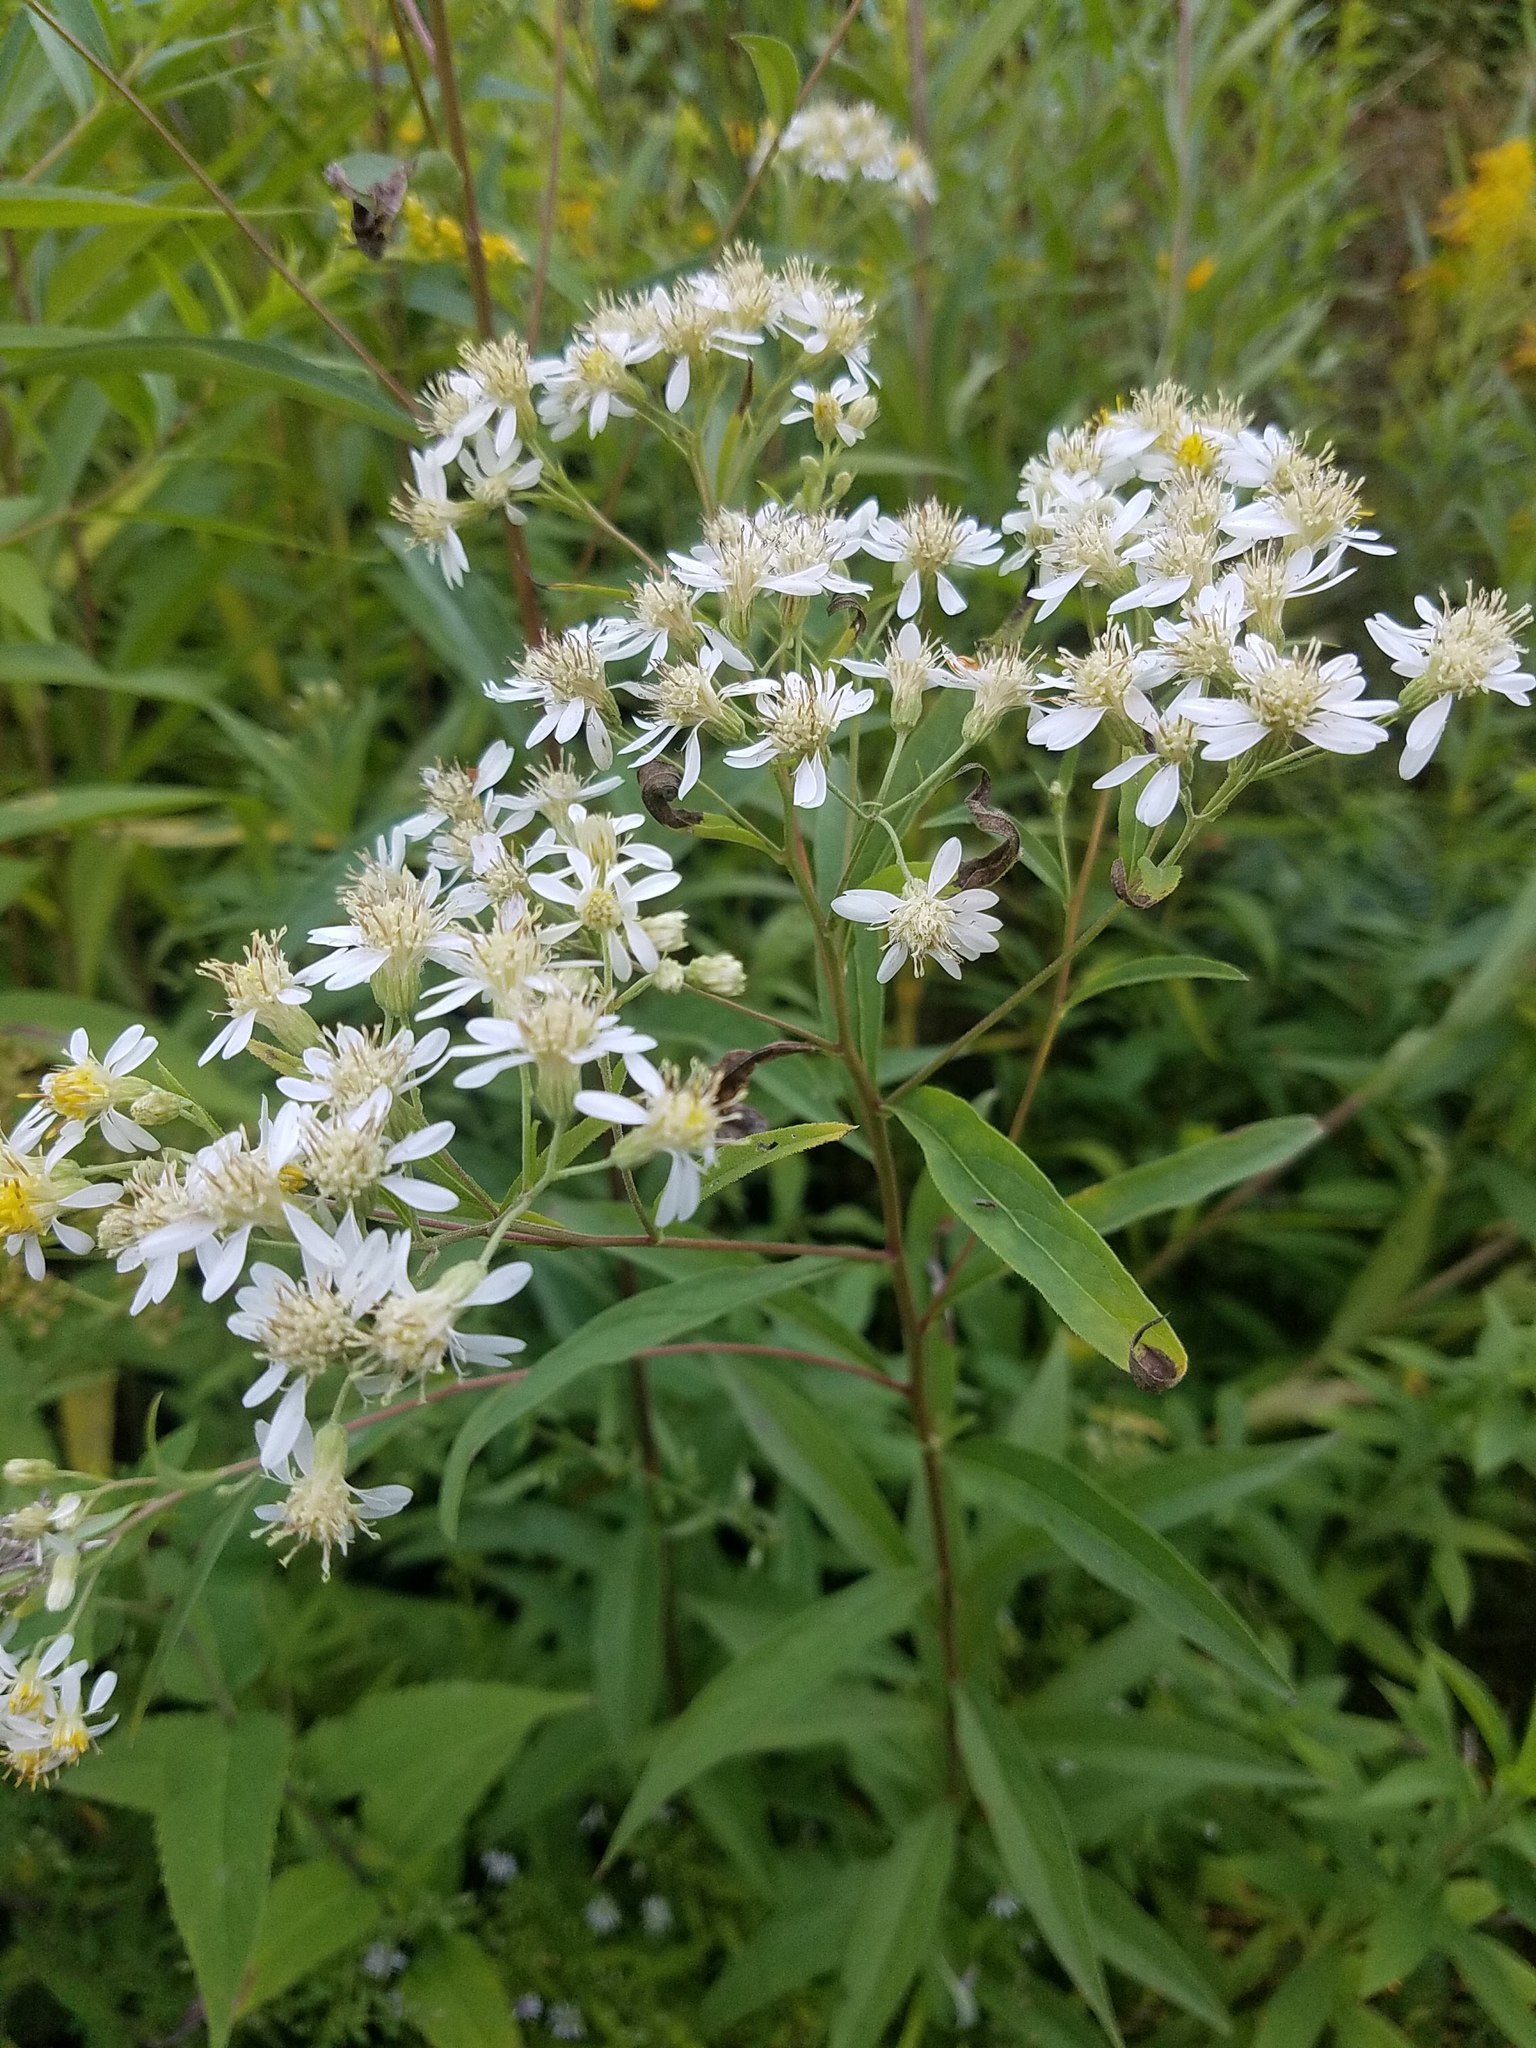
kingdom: Plantae
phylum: Tracheophyta
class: Magnoliopsida
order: Asterales
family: Asteraceae
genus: Doellingeria
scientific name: Doellingeria umbellata
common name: Flat-top white aster
